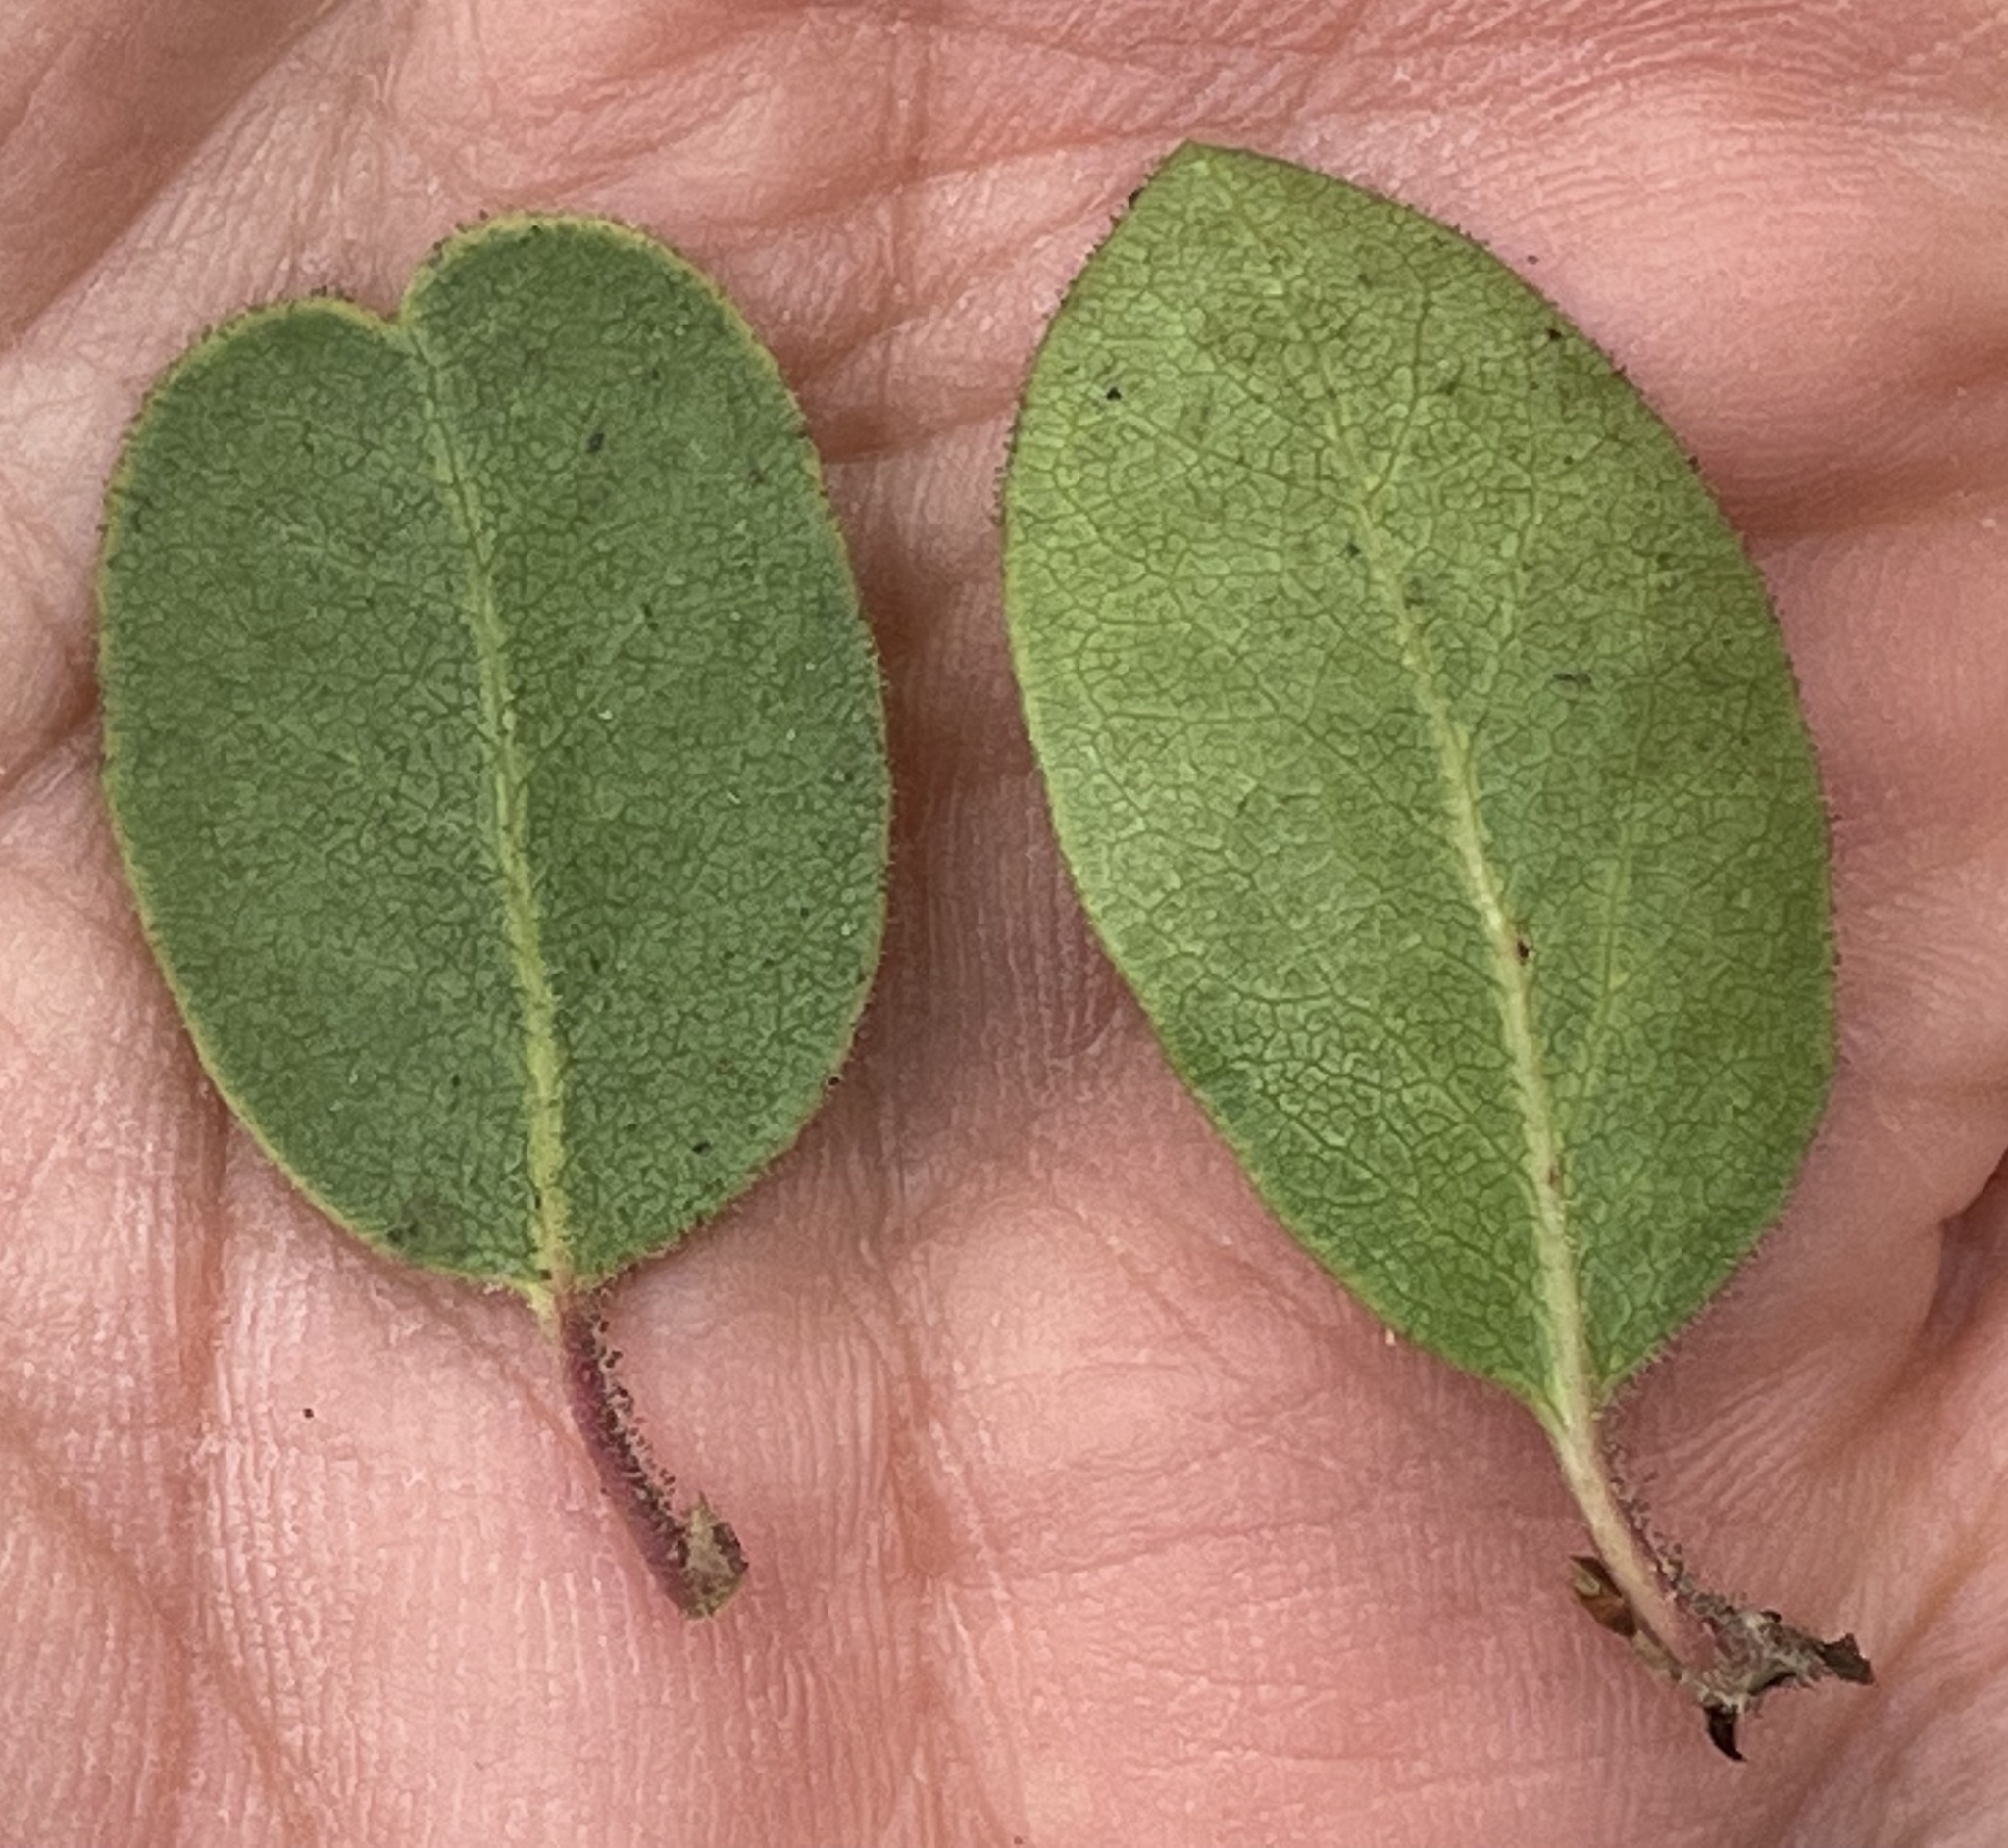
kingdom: Plantae
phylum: Tracheophyta
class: Magnoliopsida
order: Ericales
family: Ericaceae
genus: Arctostaphylos
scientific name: Arctostaphylos montereyensis
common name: Monterey manzanita
